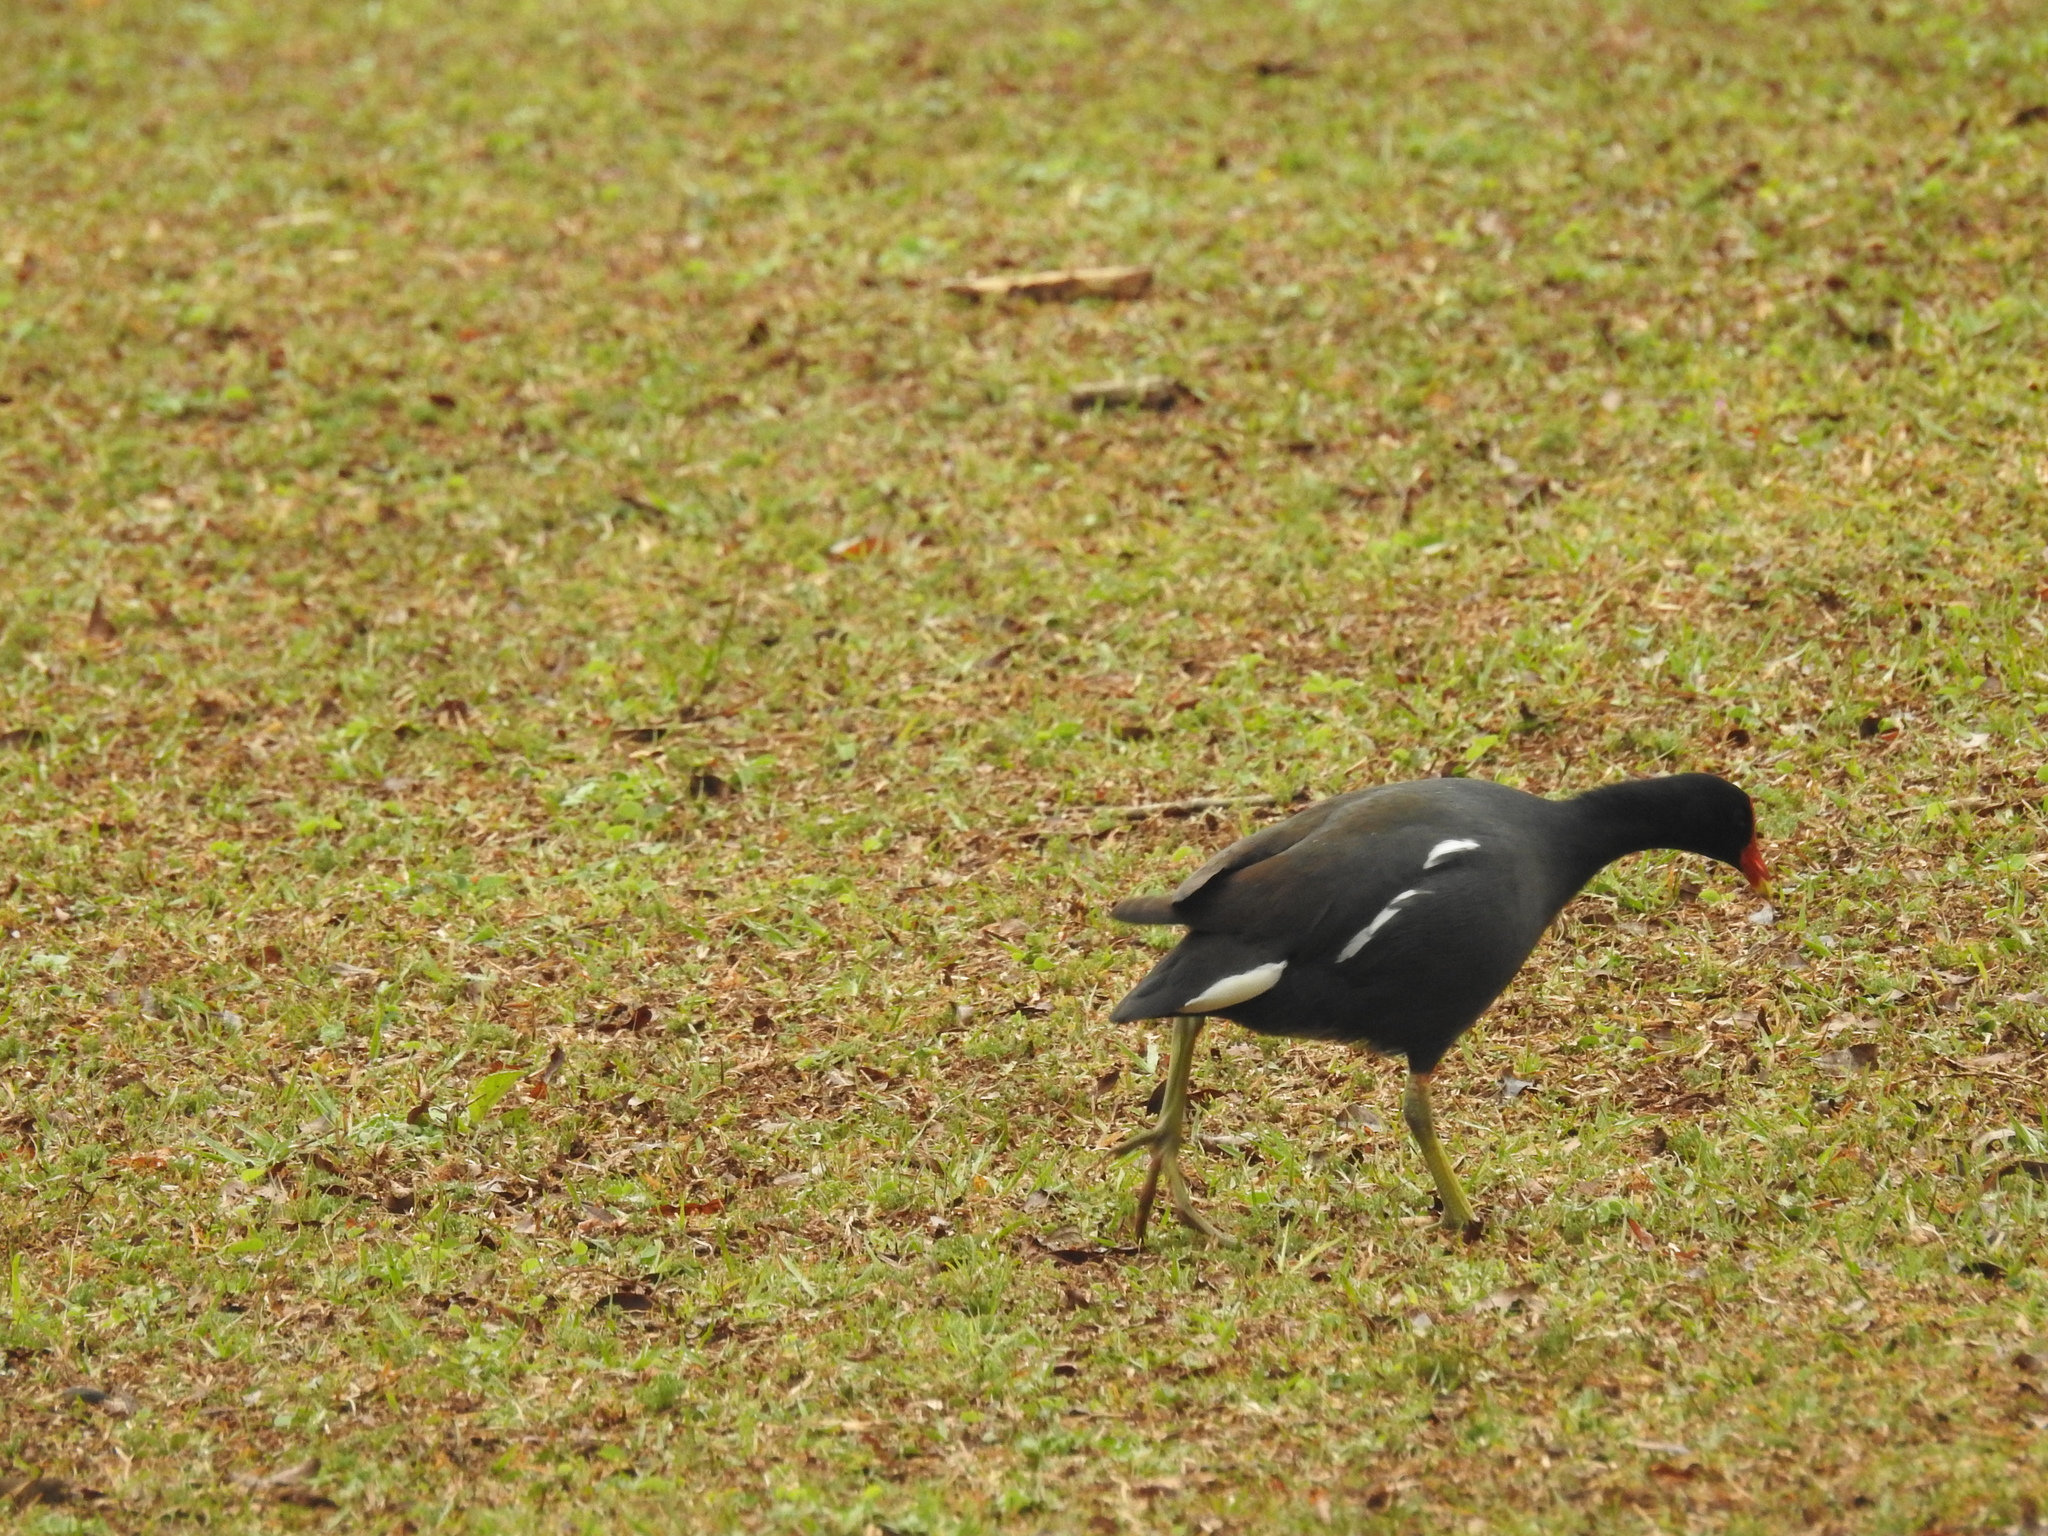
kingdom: Animalia
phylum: Chordata
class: Aves
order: Gruiformes
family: Rallidae
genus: Gallinula
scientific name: Gallinula chloropus
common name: Common moorhen
